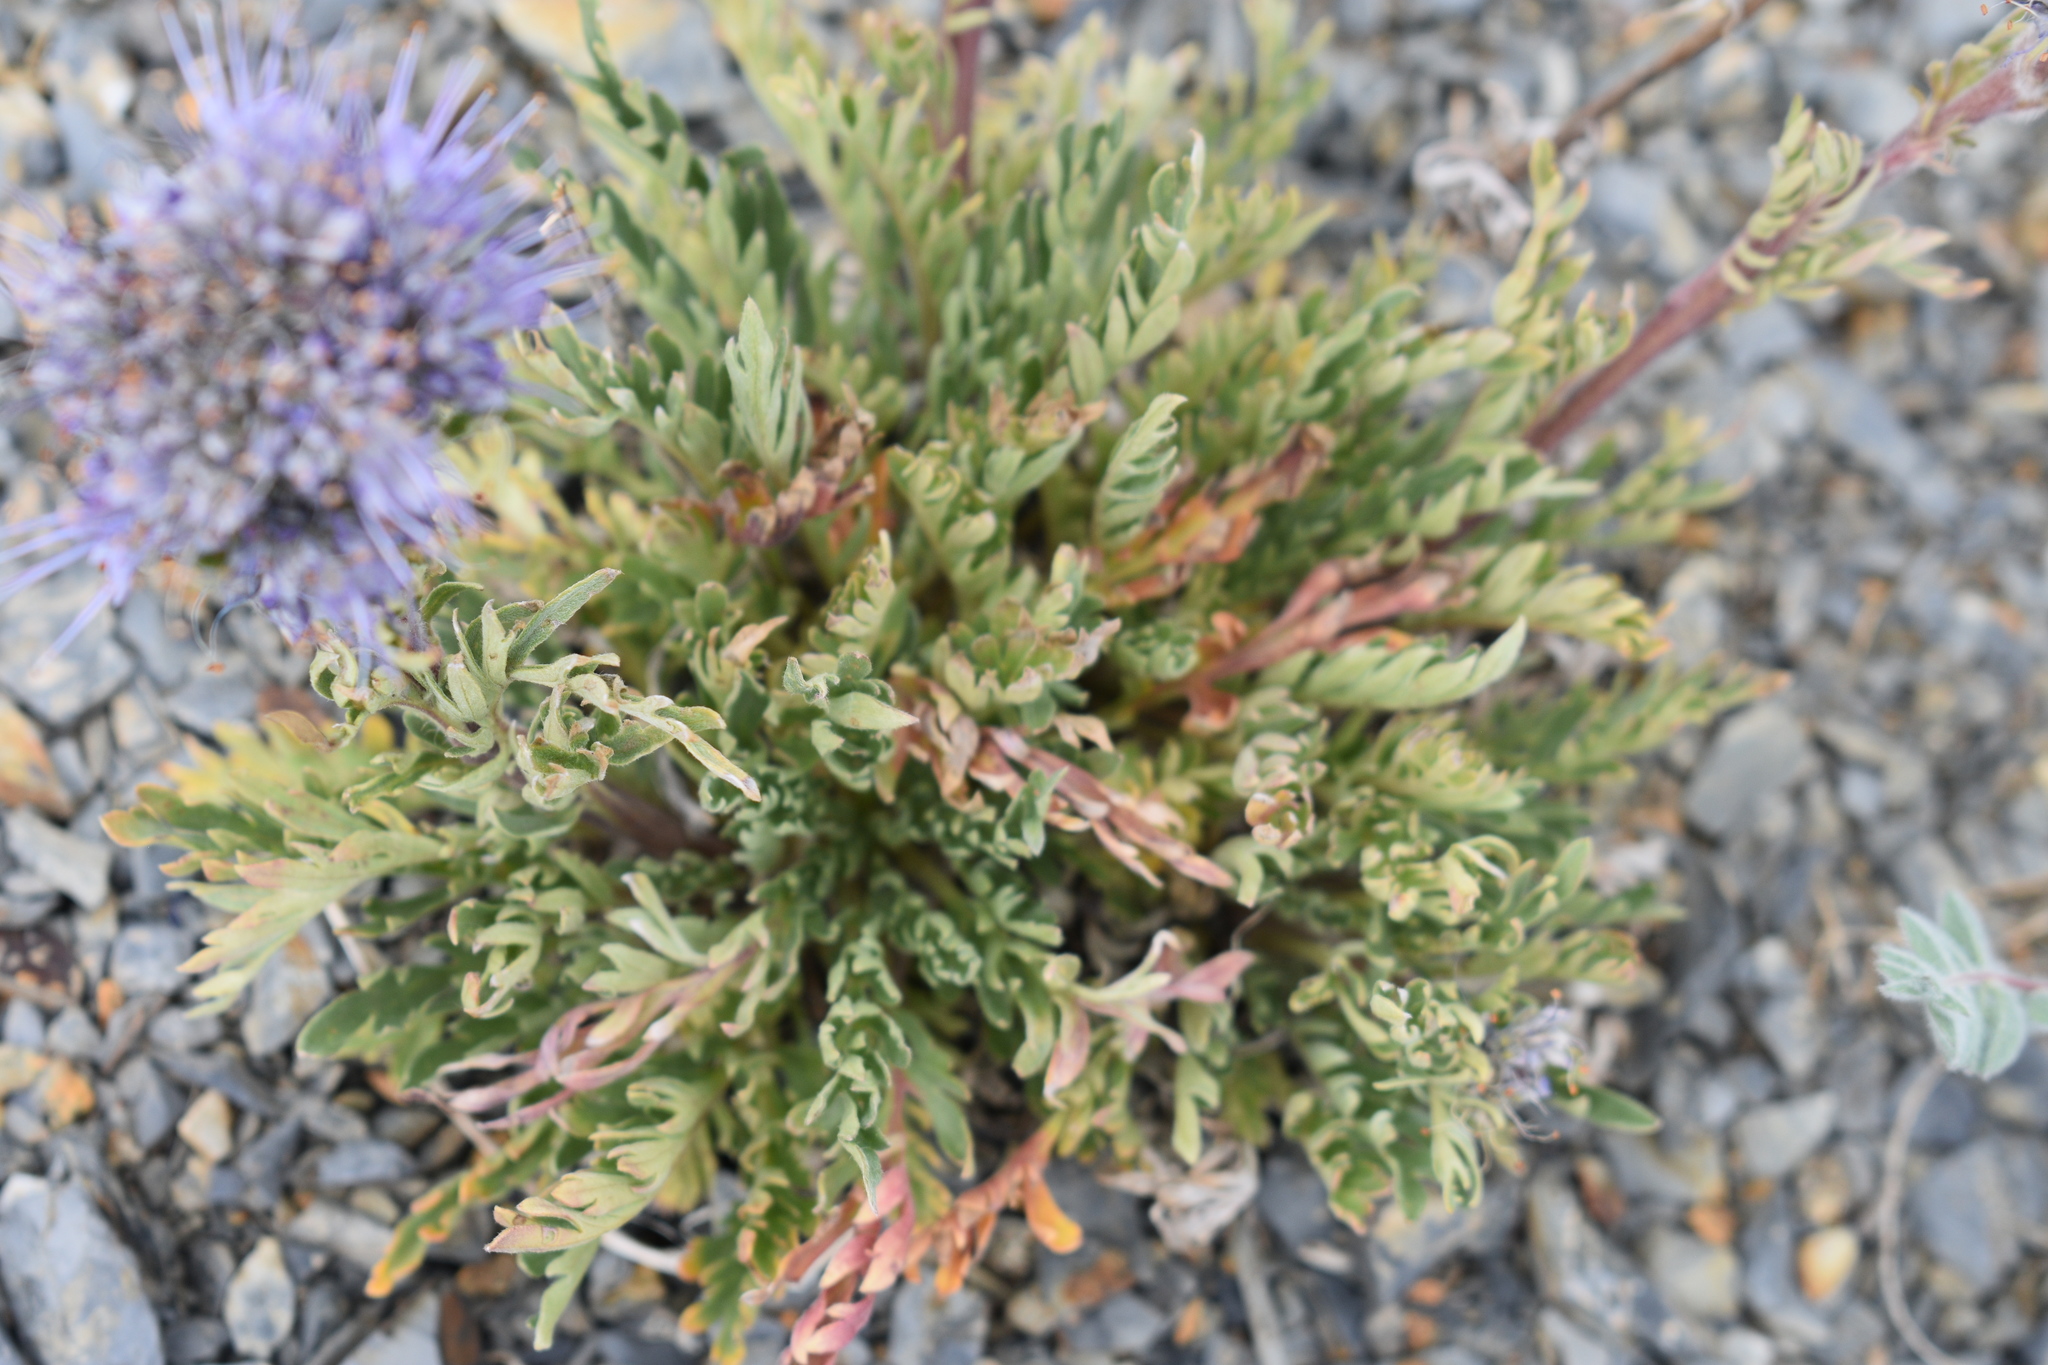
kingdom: Plantae
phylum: Tracheophyta
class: Magnoliopsida
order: Boraginales
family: Hydrophyllaceae
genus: Phacelia
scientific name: Phacelia sericea
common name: Silky phacelia
